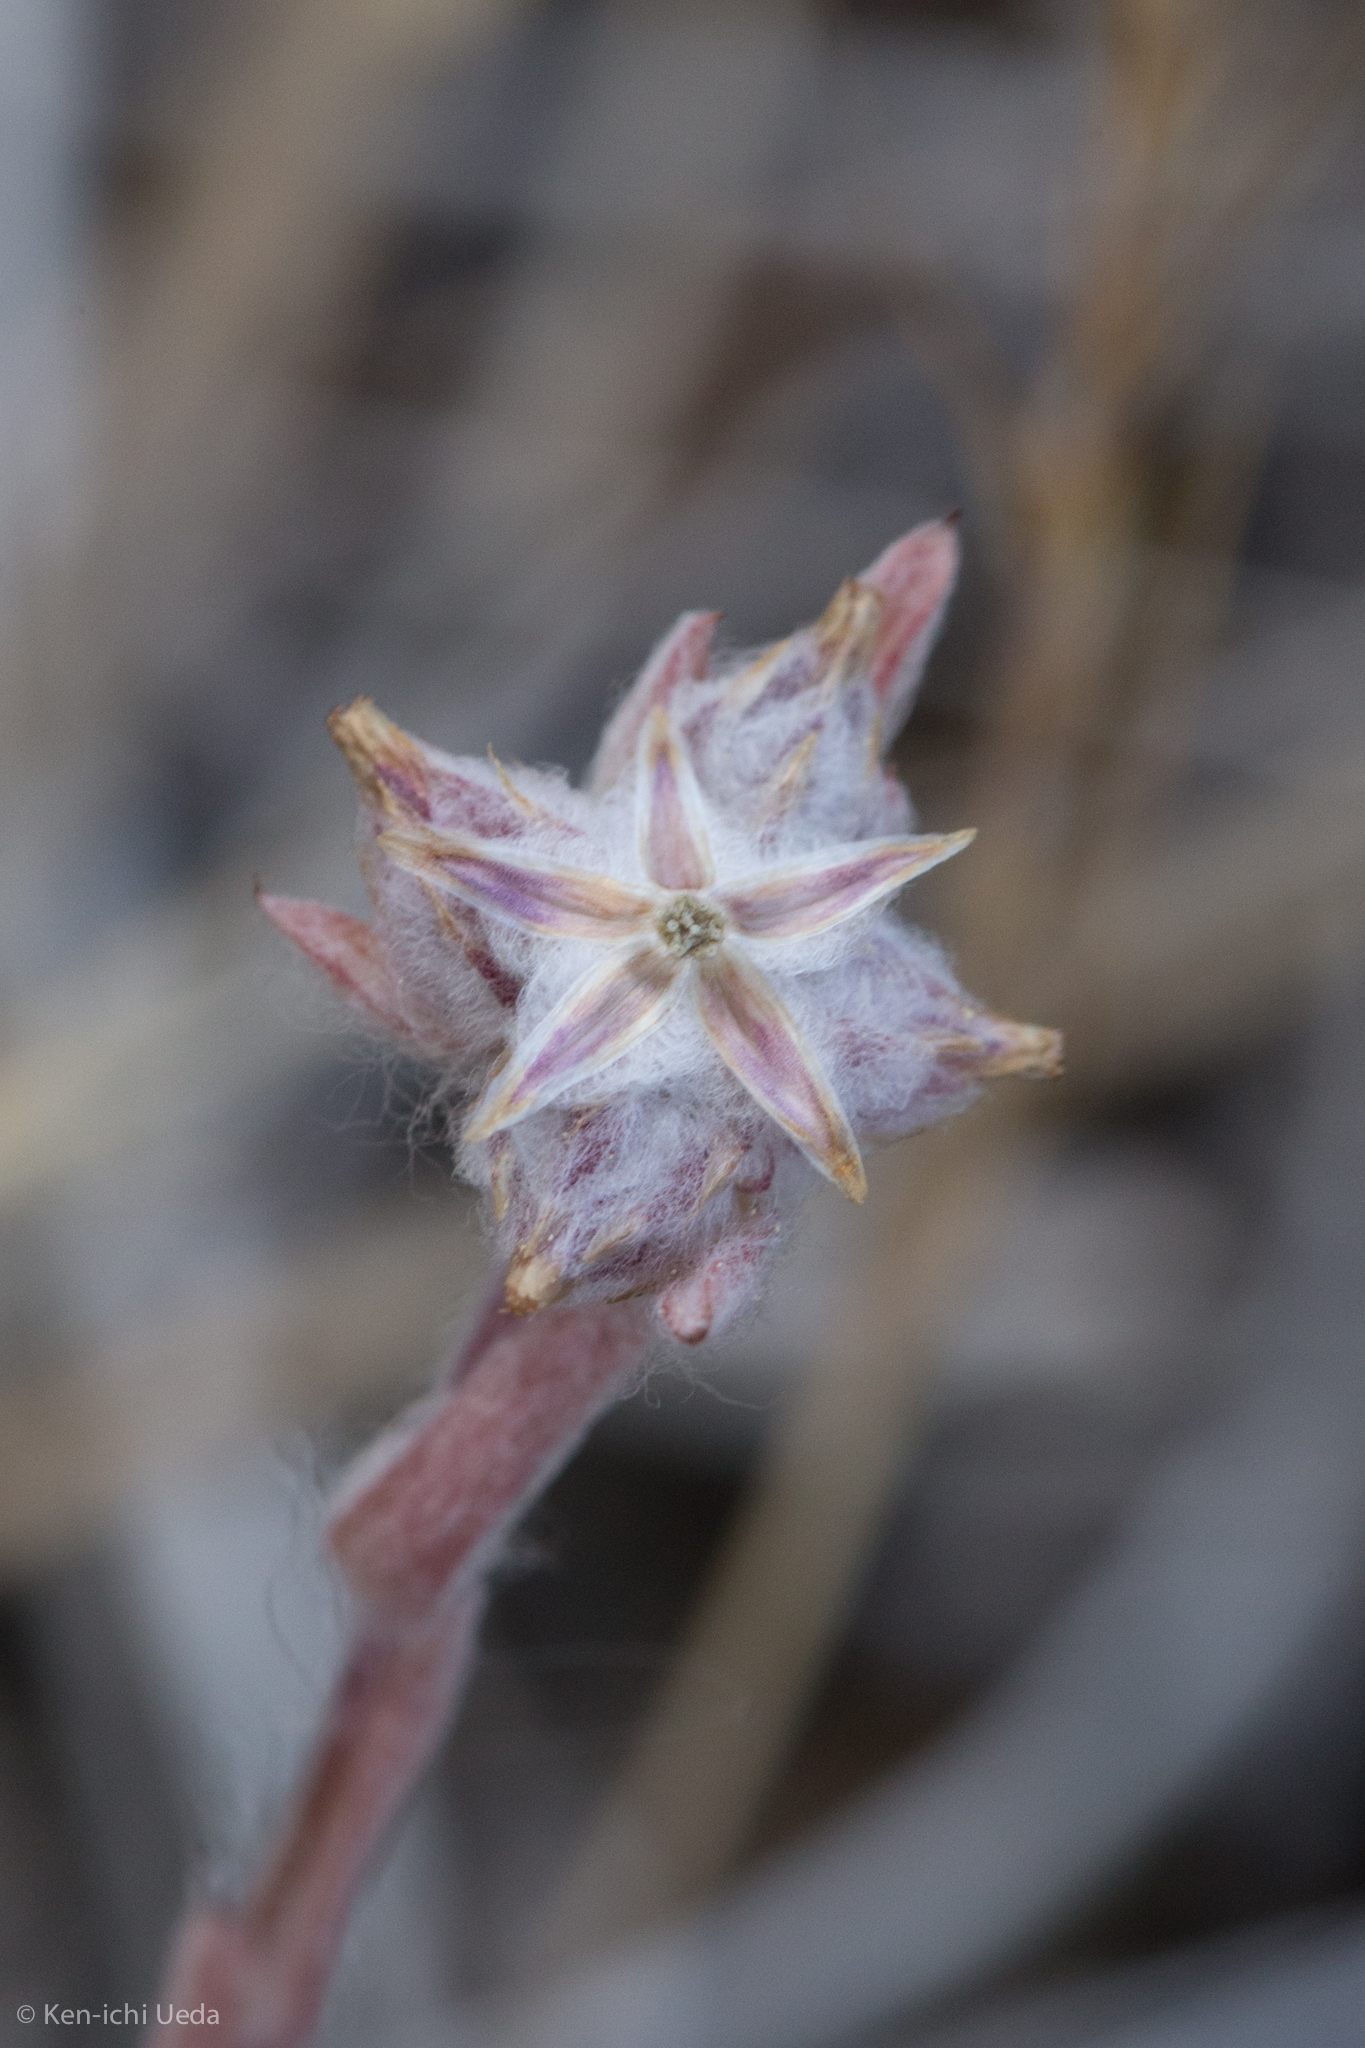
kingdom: Plantae
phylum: Tracheophyta
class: Magnoliopsida
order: Asterales
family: Asteraceae
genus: Logfia
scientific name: Logfia californica
